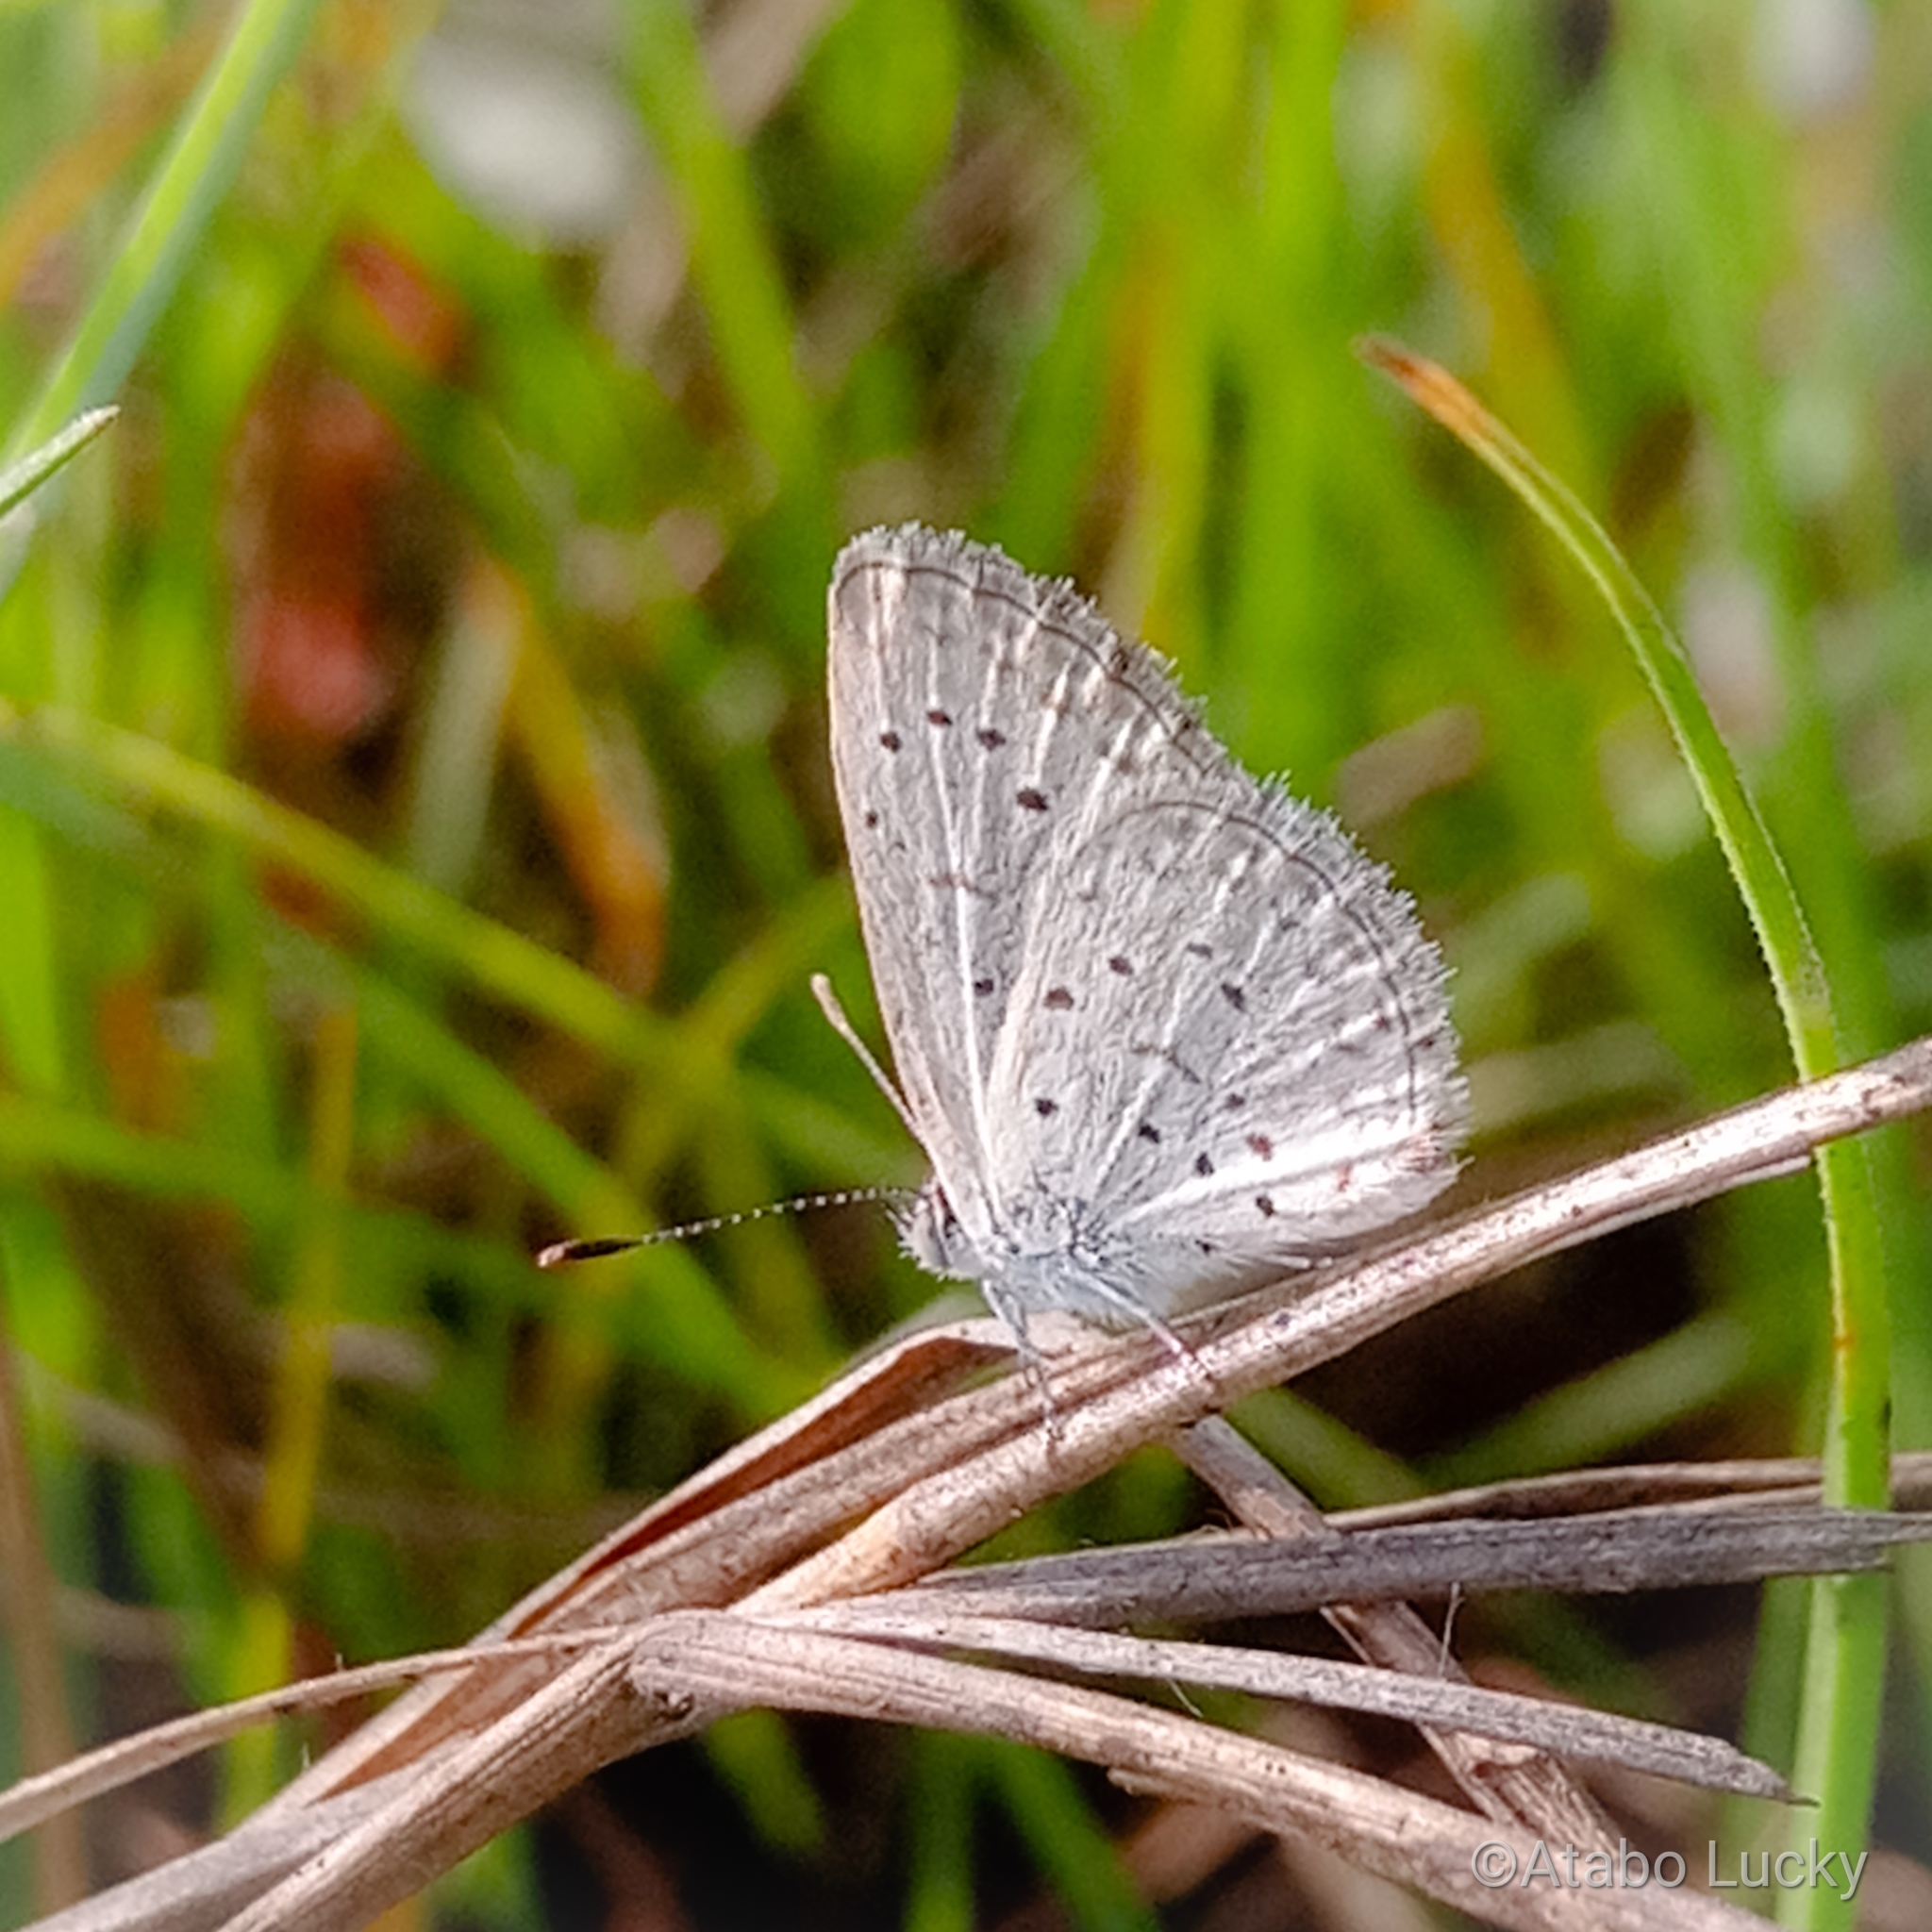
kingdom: Animalia
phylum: Arthropoda
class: Insecta
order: Lepidoptera
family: Lycaenidae
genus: Zizeeria
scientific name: Zizeeria knysna
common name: African grass blue
